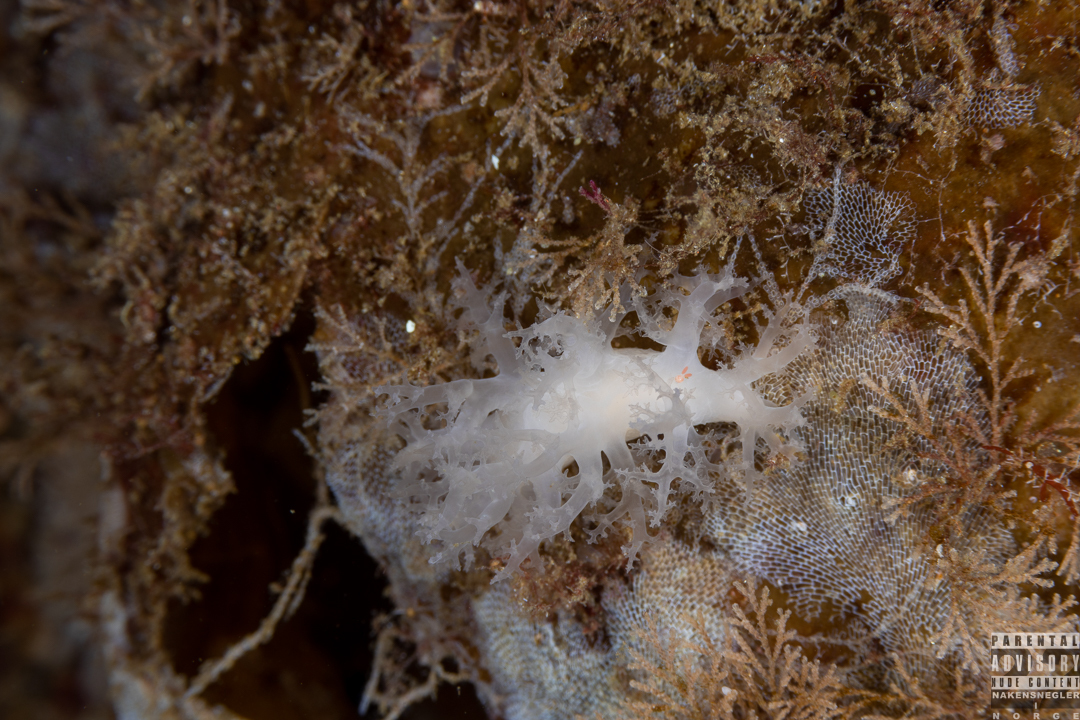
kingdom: Animalia
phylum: Mollusca
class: Gastropoda
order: Nudibranchia
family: Dendronotidae
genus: Dendronotus
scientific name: Dendronotus lacteus
